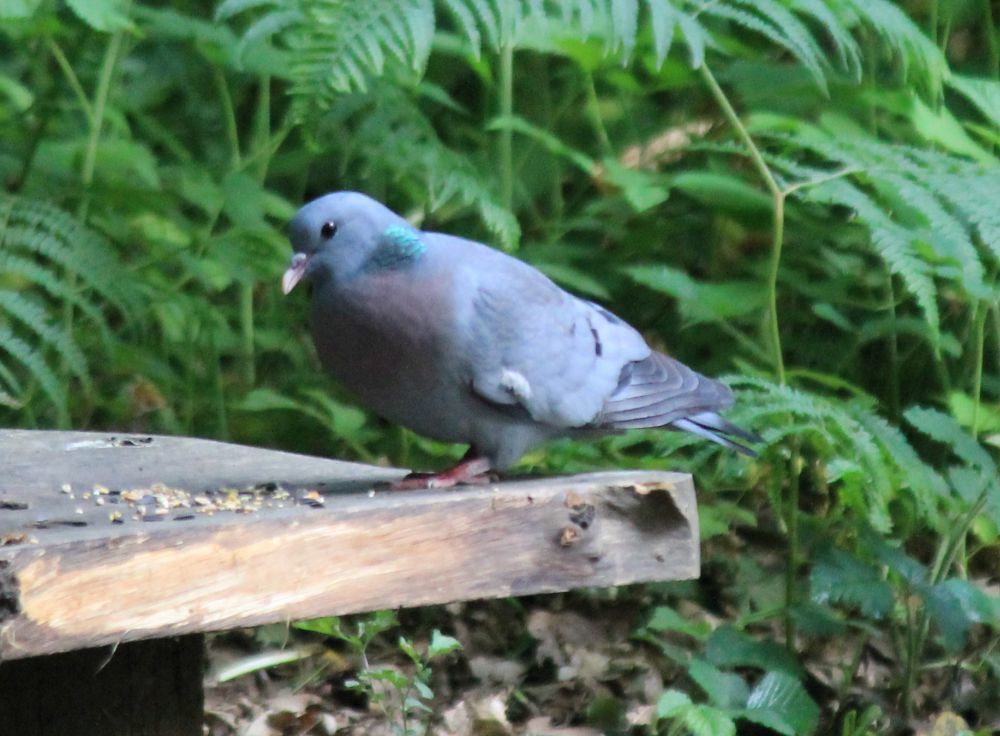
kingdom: Animalia
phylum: Chordata
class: Aves
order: Columbiformes
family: Columbidae
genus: Columba
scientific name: Columba oenas
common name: Stock dove
